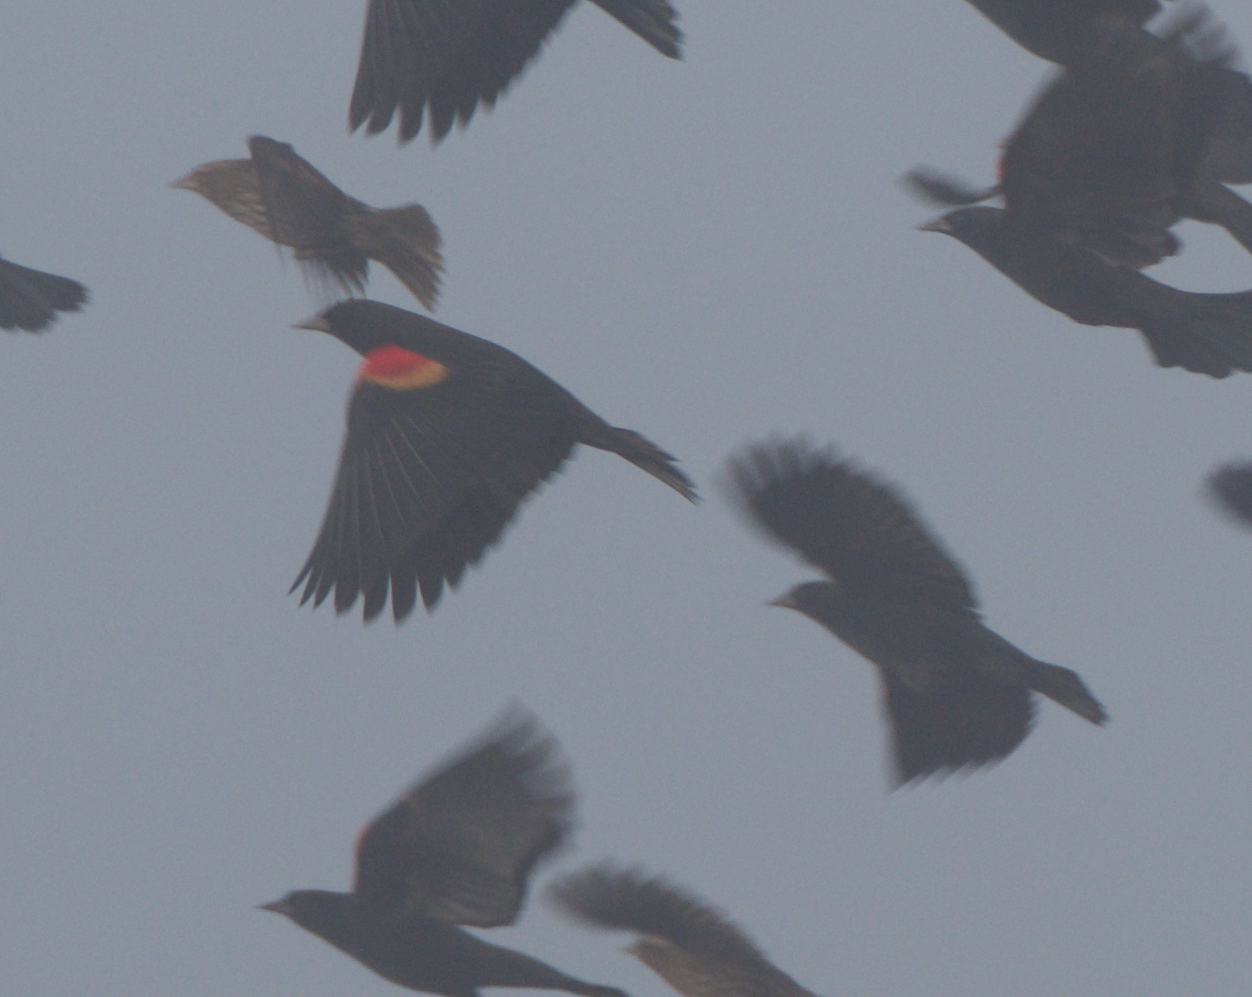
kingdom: Animalia
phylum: Chordata
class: Aves
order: Passeriformes
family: Icteridae
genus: Agelaius
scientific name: Agelaius phoeniceus
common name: Red-winged blackbird
